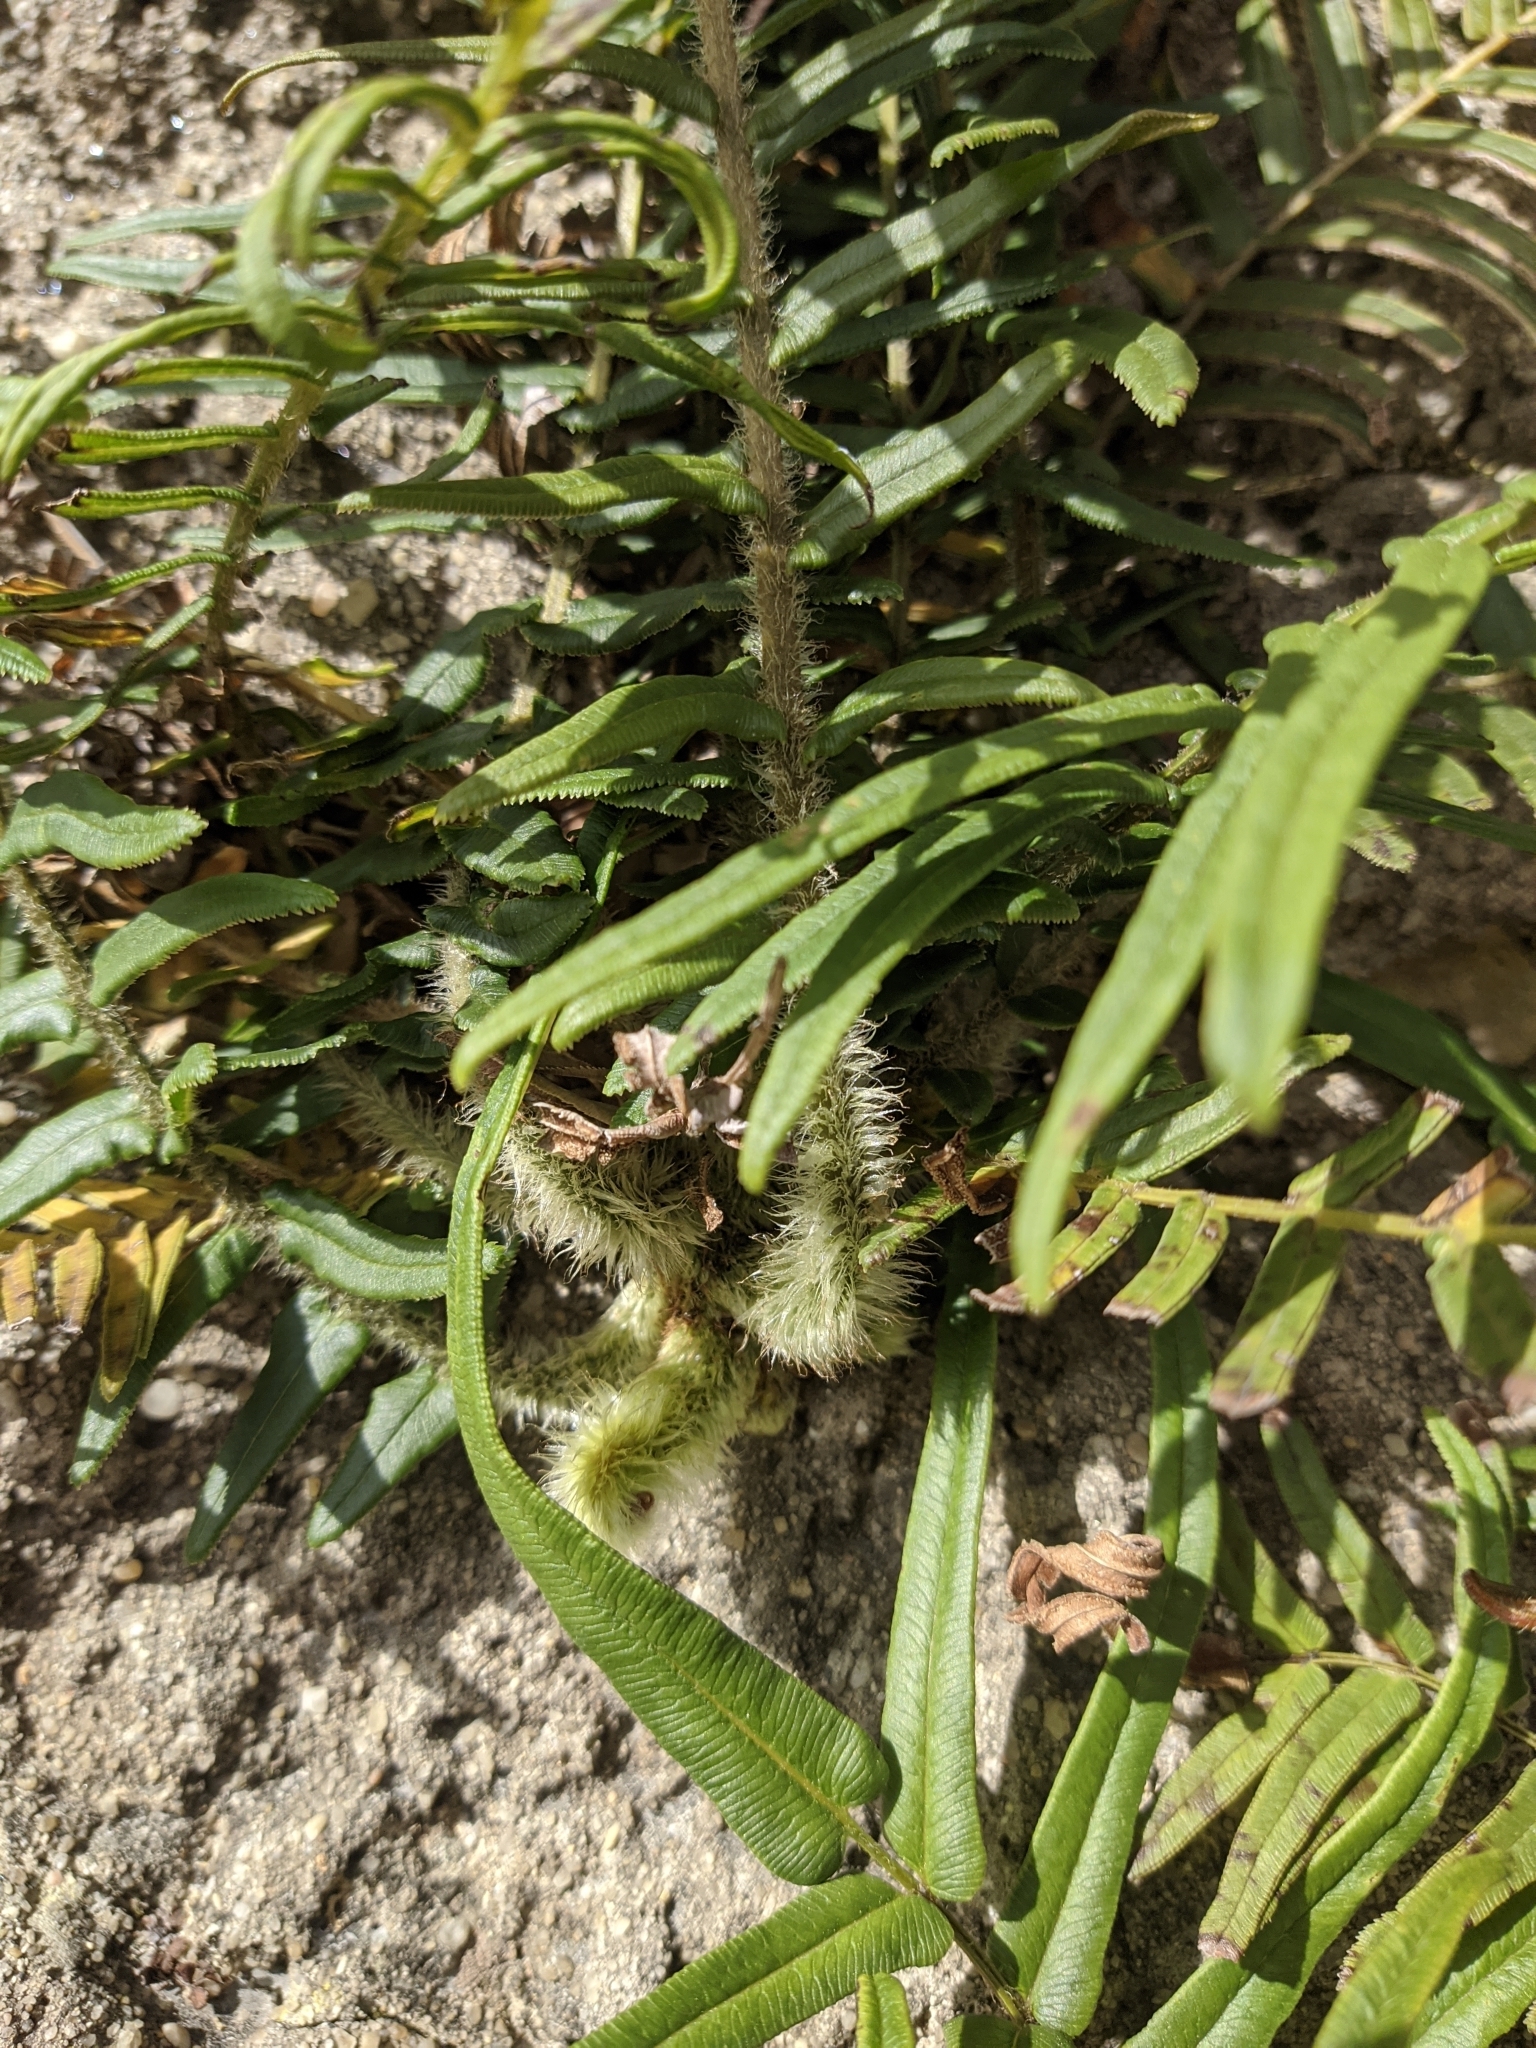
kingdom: Plantae
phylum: Tracheophyta
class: Polypodiopsida
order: Polypodiales
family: Pteridaceae
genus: Pteris
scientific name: Pteris vittata
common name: Ladder brake
